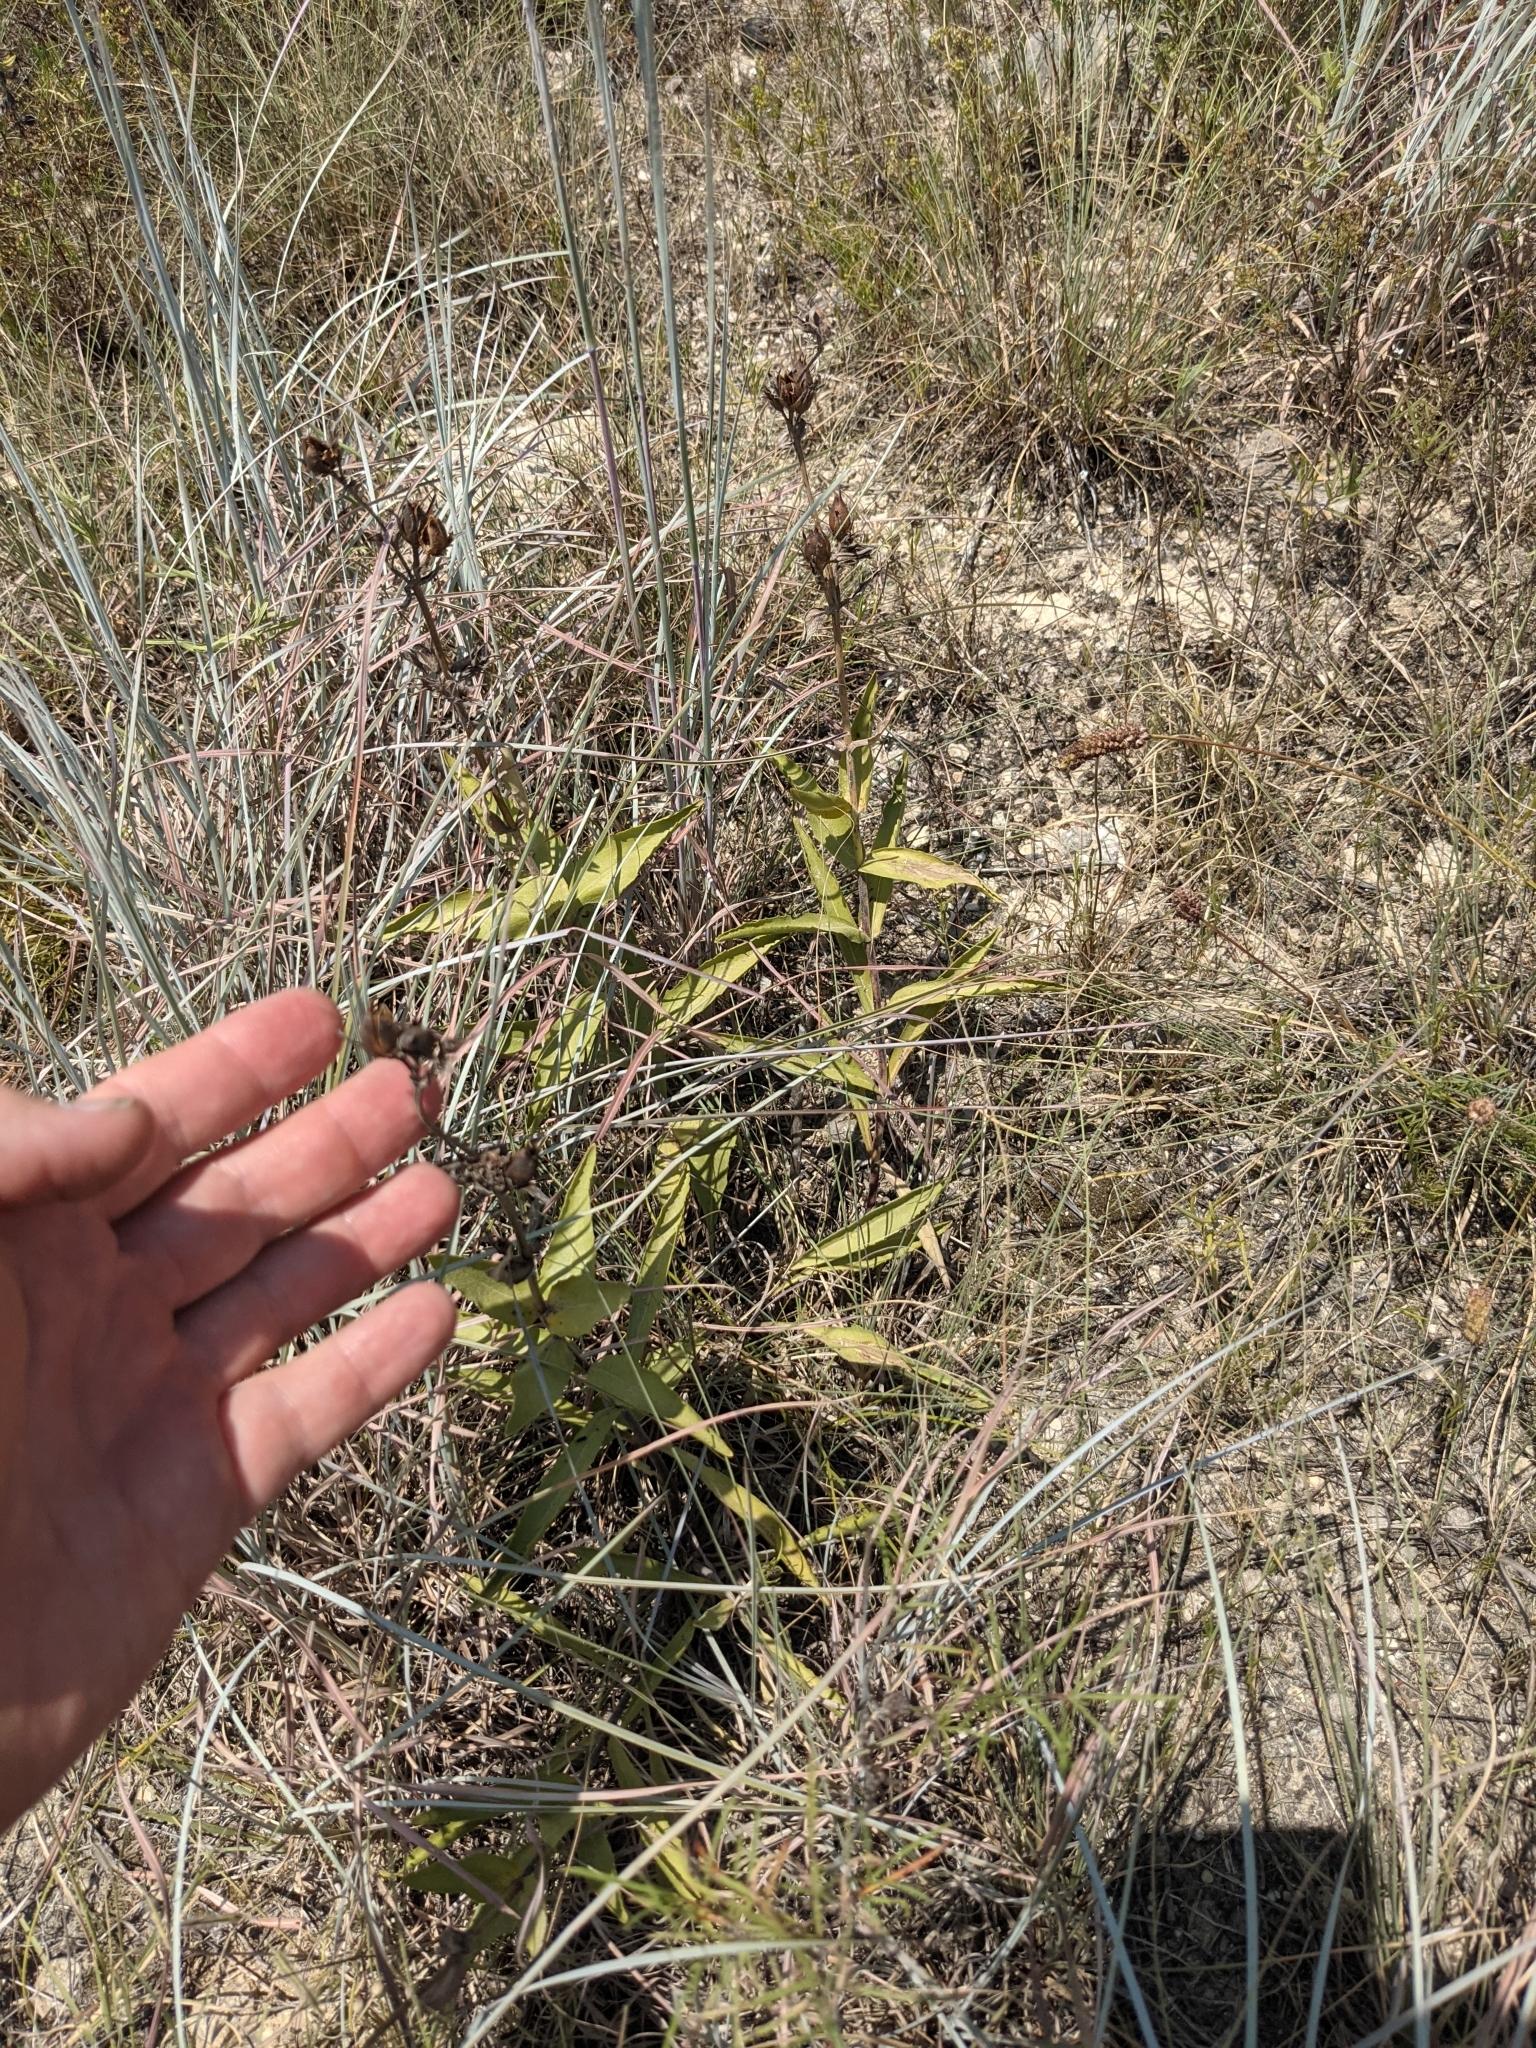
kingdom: Plantae
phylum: Tracheophyta
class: Magnoliopsida
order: Lamiales
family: Plantaginaceae
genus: Penstemon
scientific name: Penstemon cobaea
